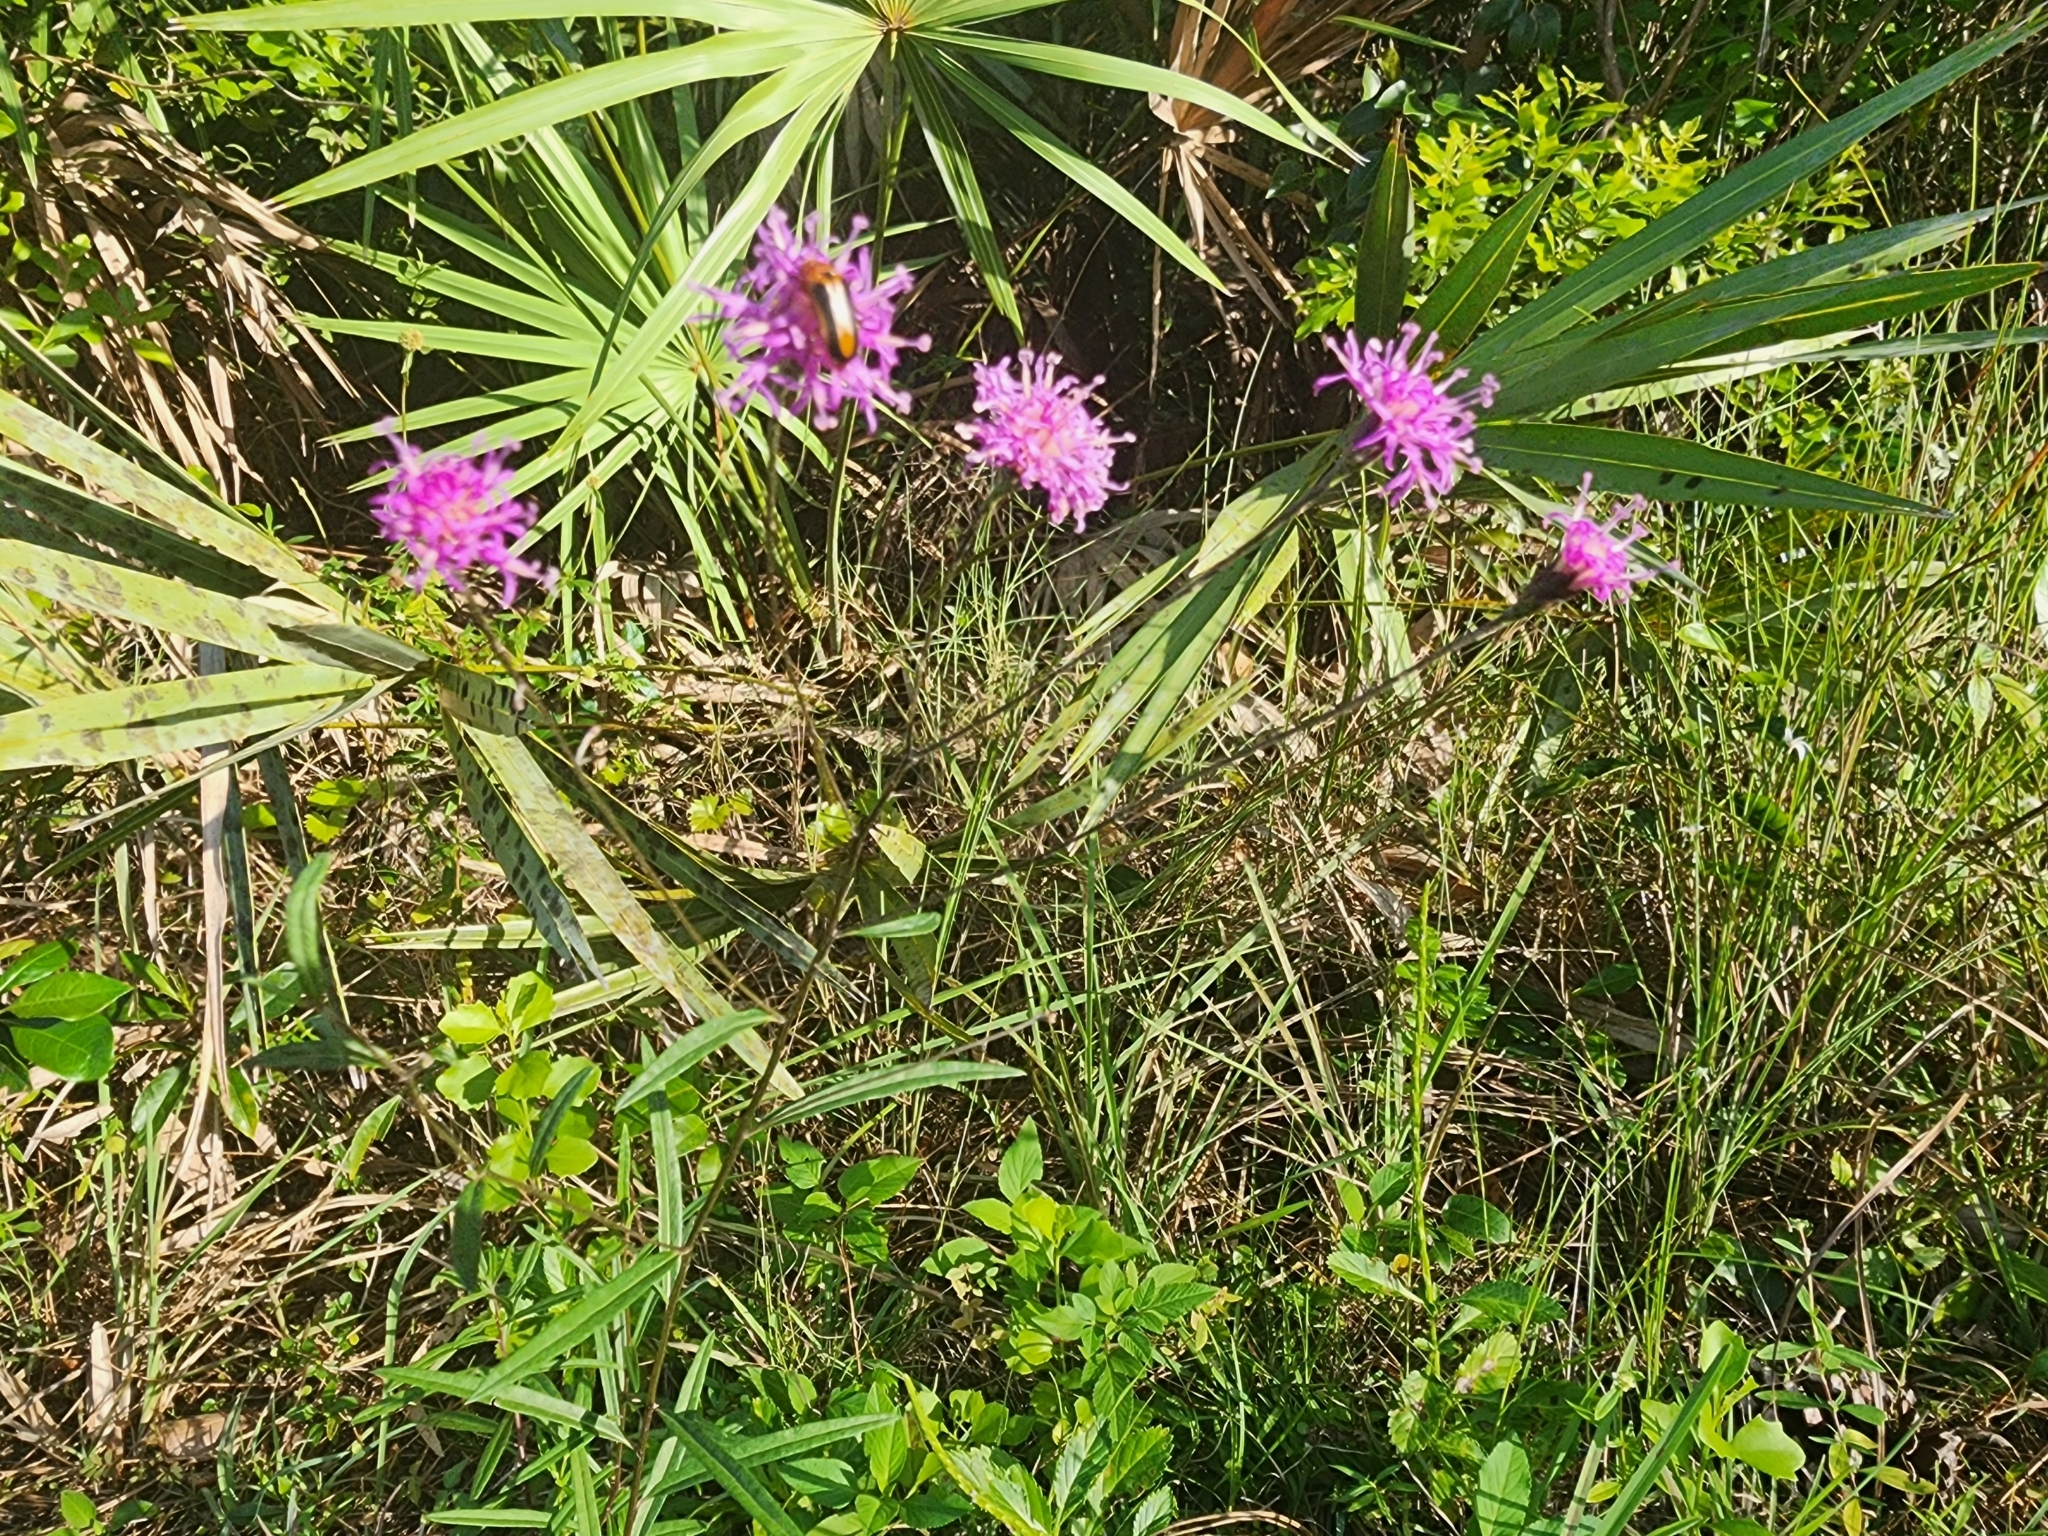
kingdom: Plantae
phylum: Tracheophyta
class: Magnoliopsida
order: Asterales
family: Asteraceae
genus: Vernonia
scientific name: Vernonia blodgettii
